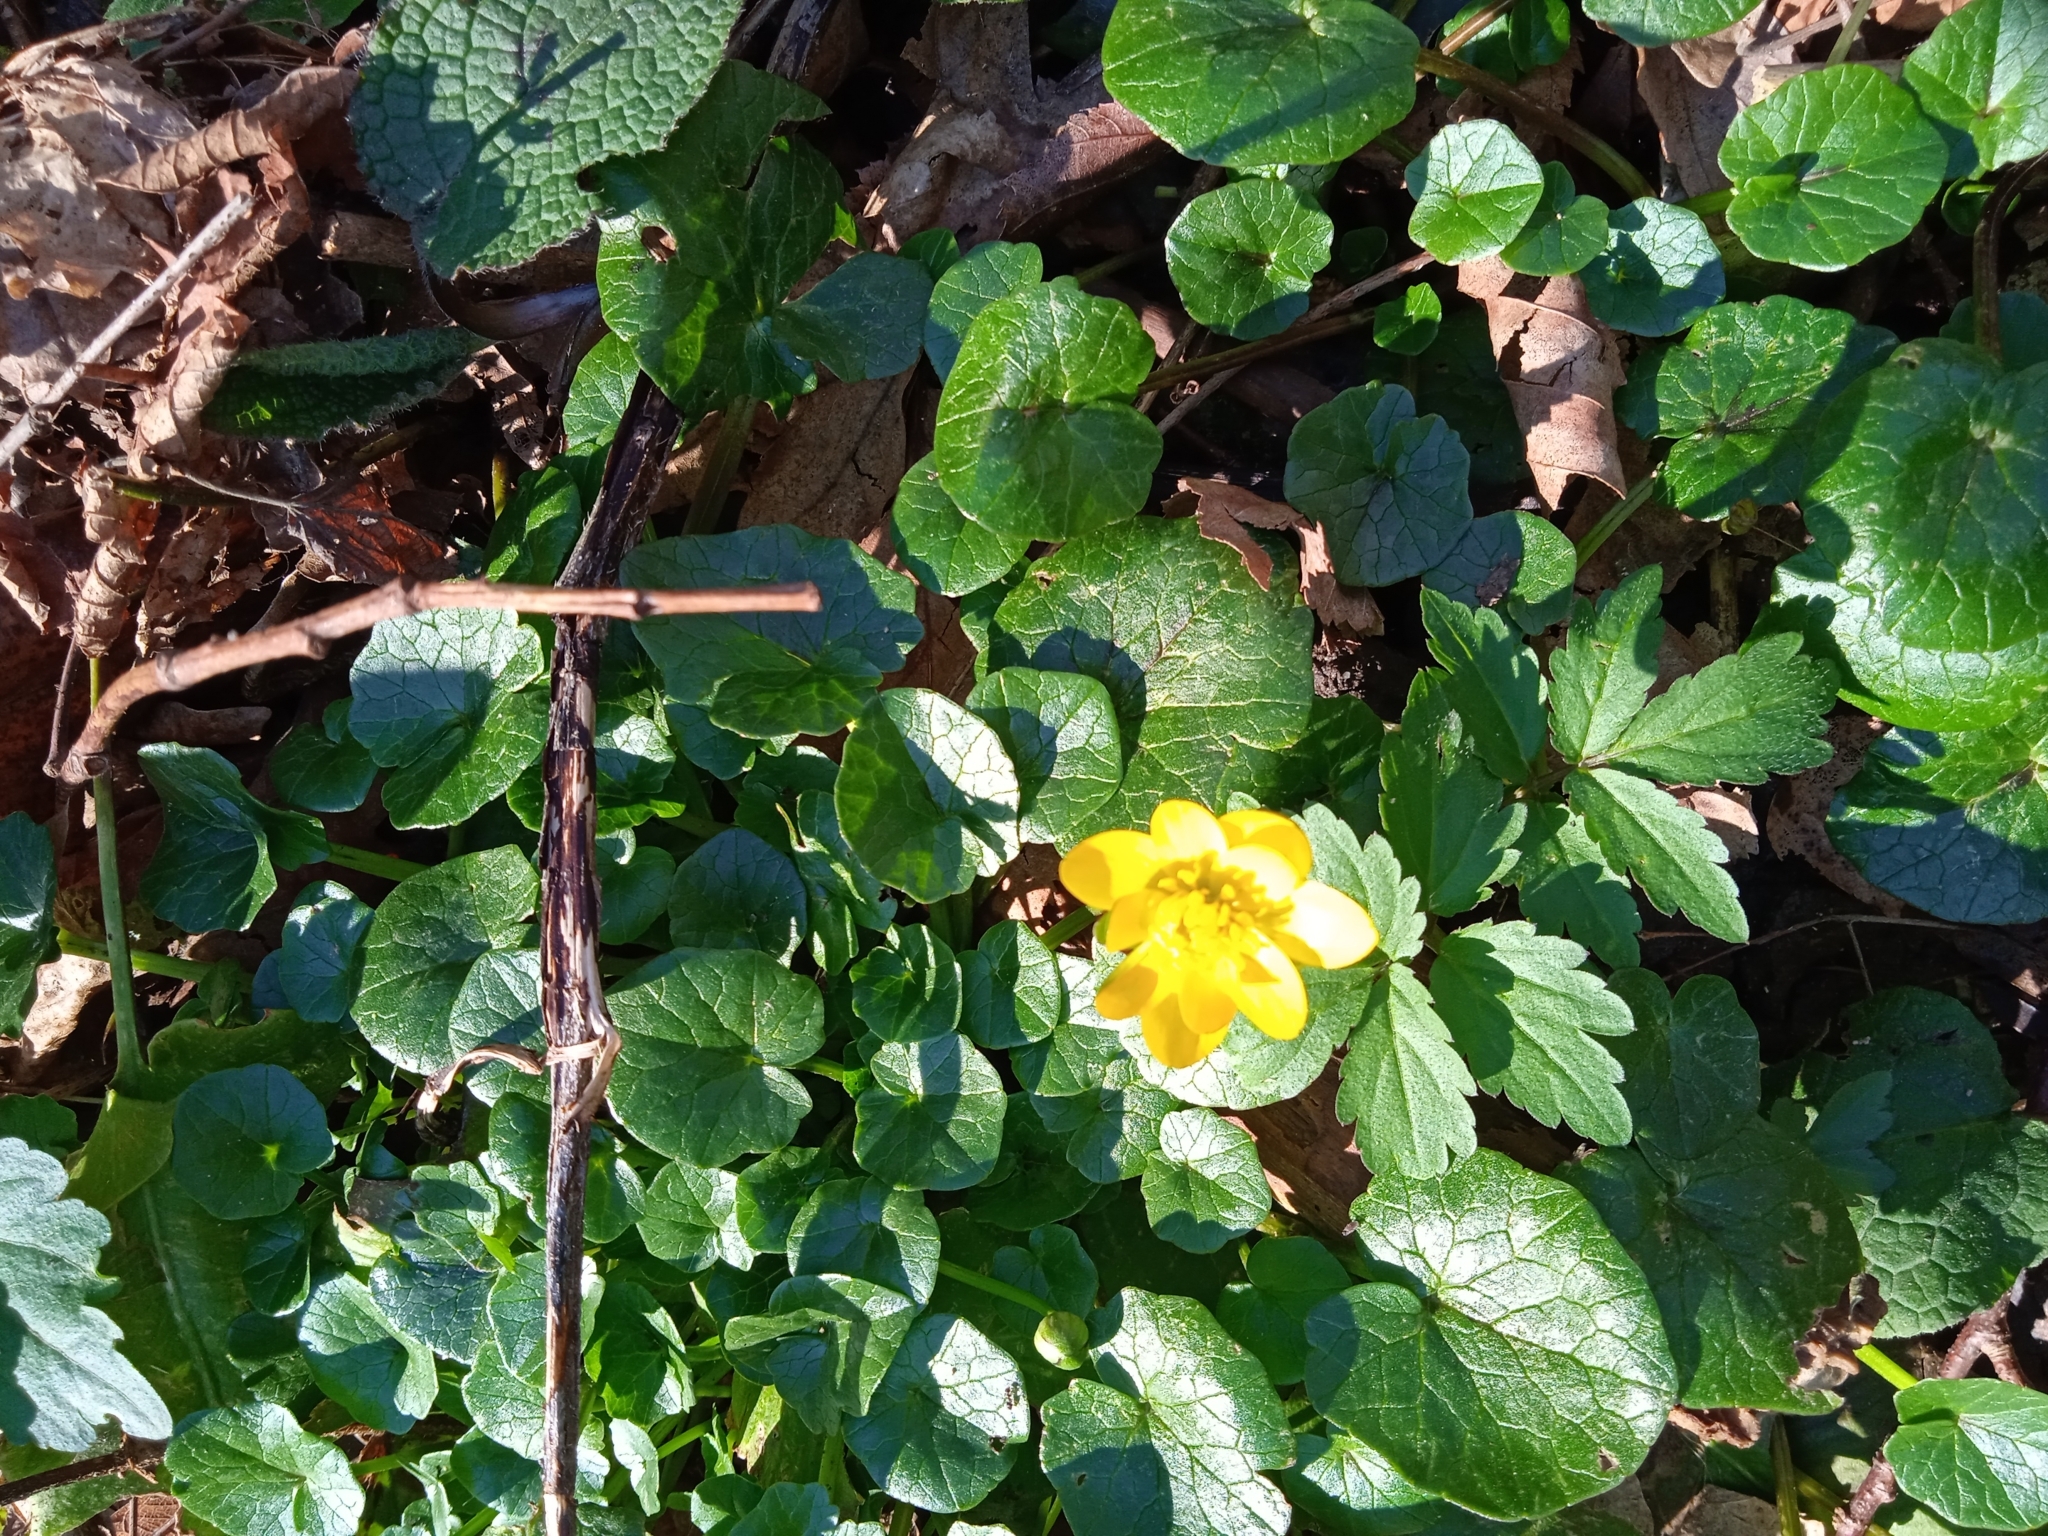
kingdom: Plantae
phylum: Tracheophyta
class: Magnoliopsida
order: Ranunculales
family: Ranunculaceae
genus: Ficaria
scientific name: Ficaria verna
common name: Lesser celandine
